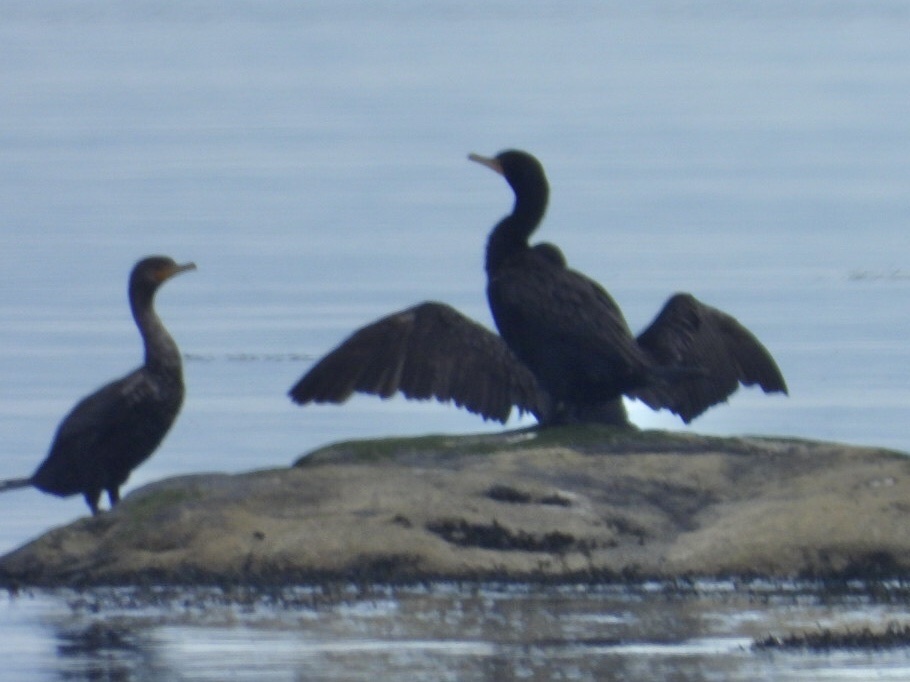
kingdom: Animalia
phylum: Chordata
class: Aves
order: Suliformes
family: Phalacrocoracidae
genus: Phalacrocorax
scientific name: Phalacrocorax auritus
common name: Double-crested cormorant
